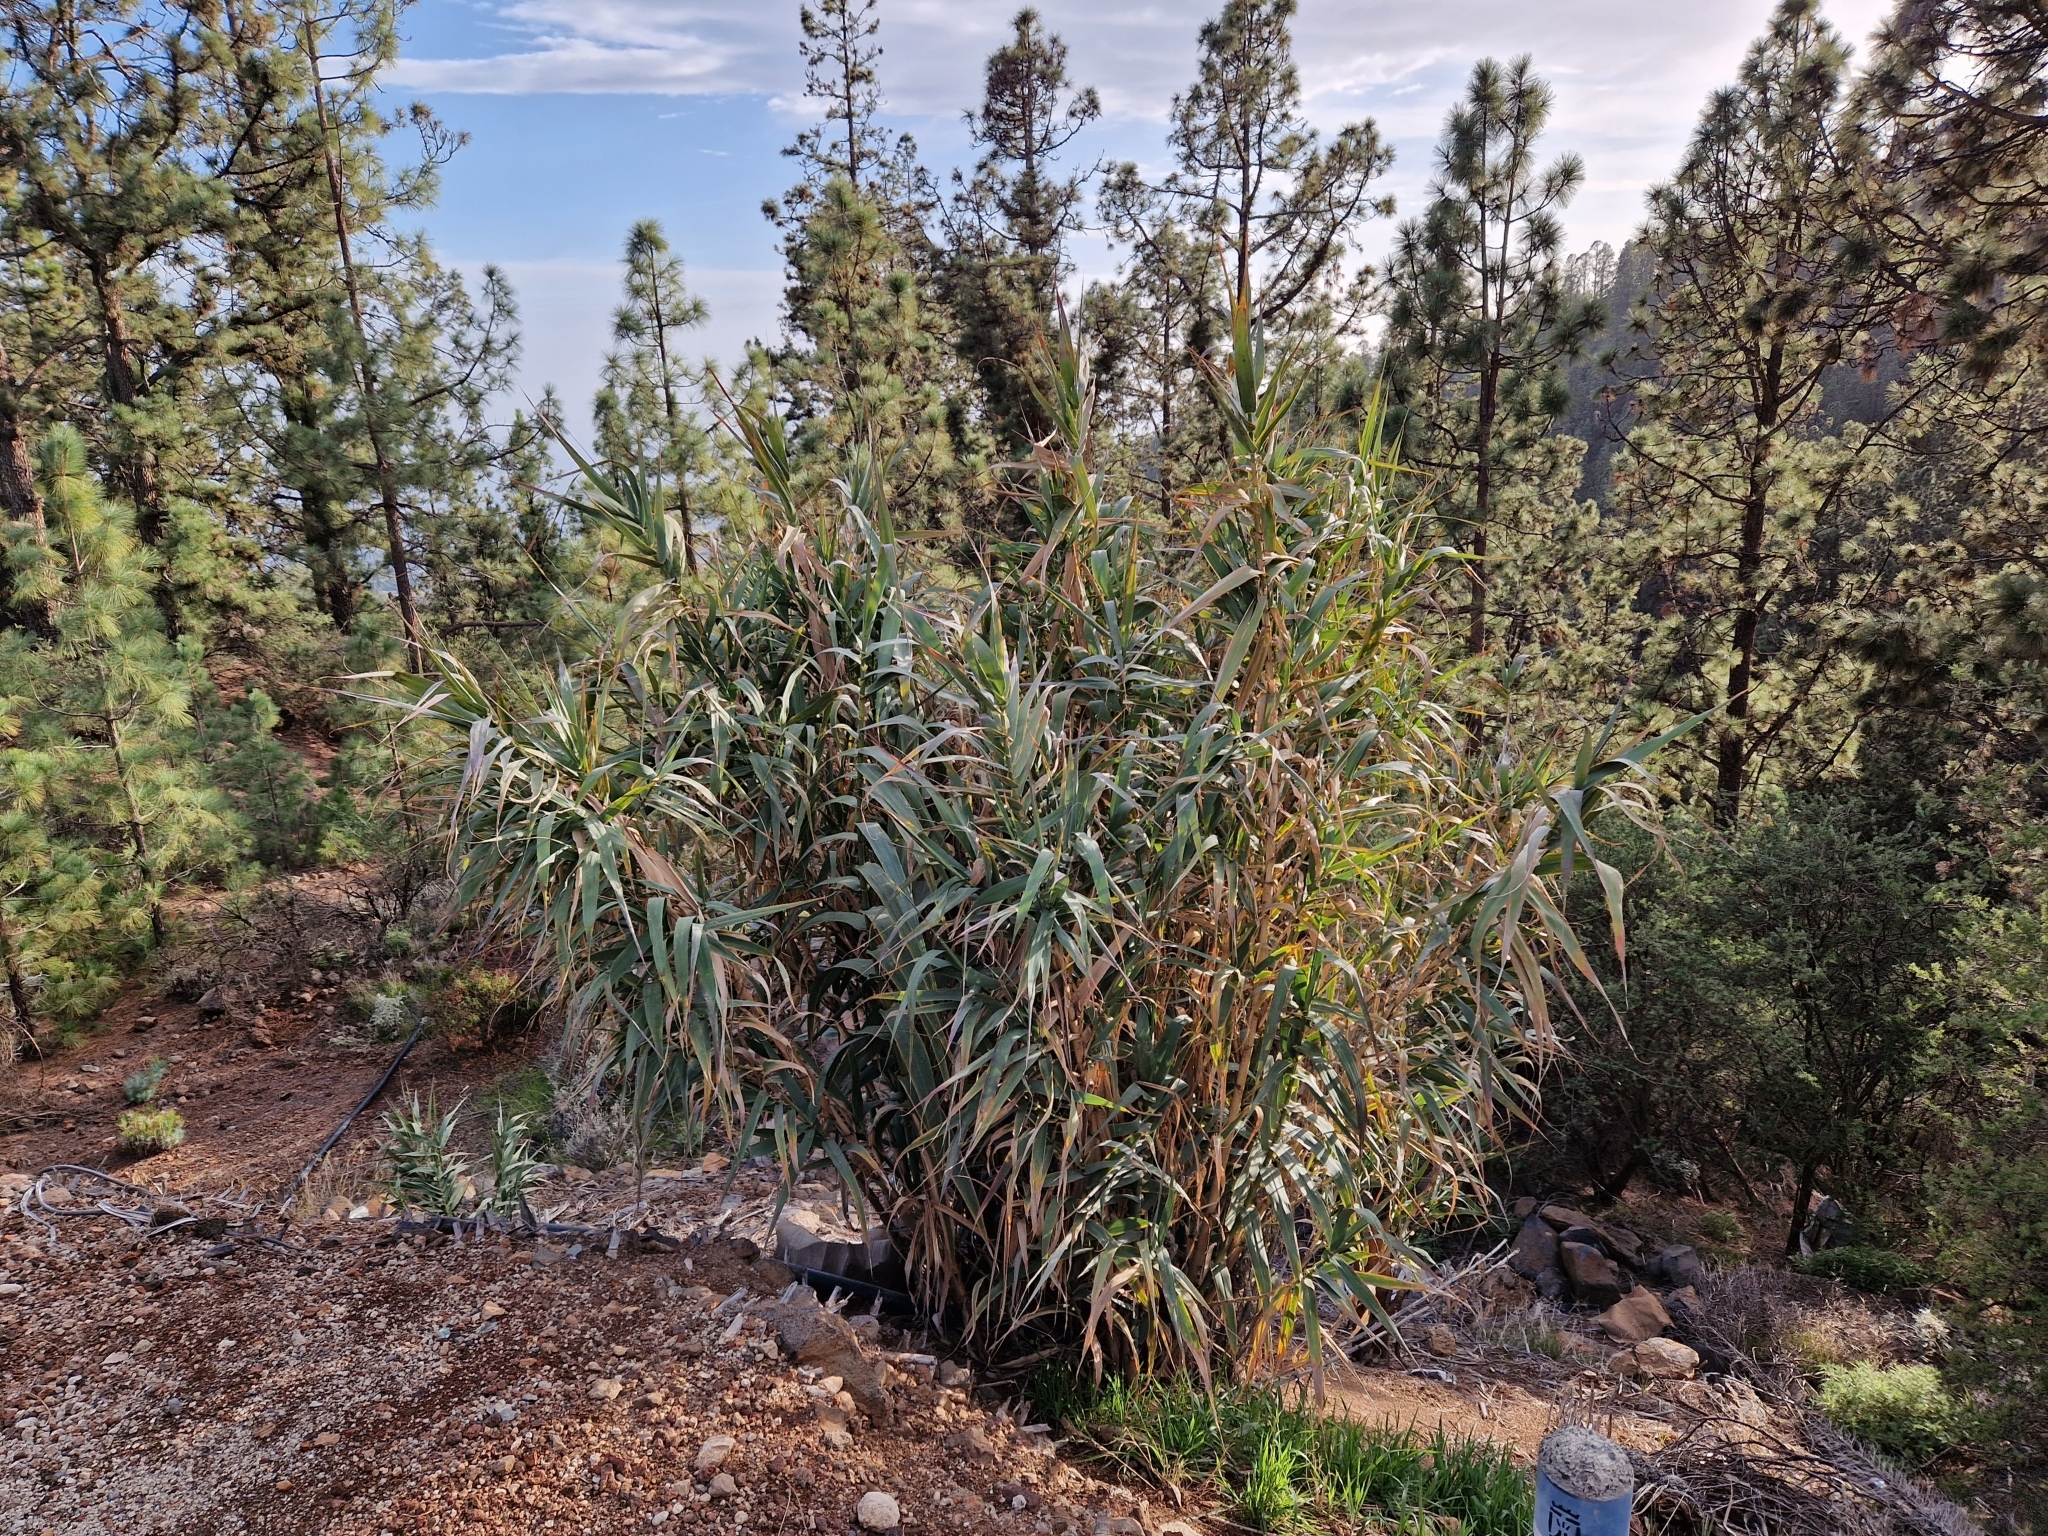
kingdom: Plantae
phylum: Tracheophyta
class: Liliopsida
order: Poales
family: Poaceae
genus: Arundo
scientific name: Arundo donax
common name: Giant reed
